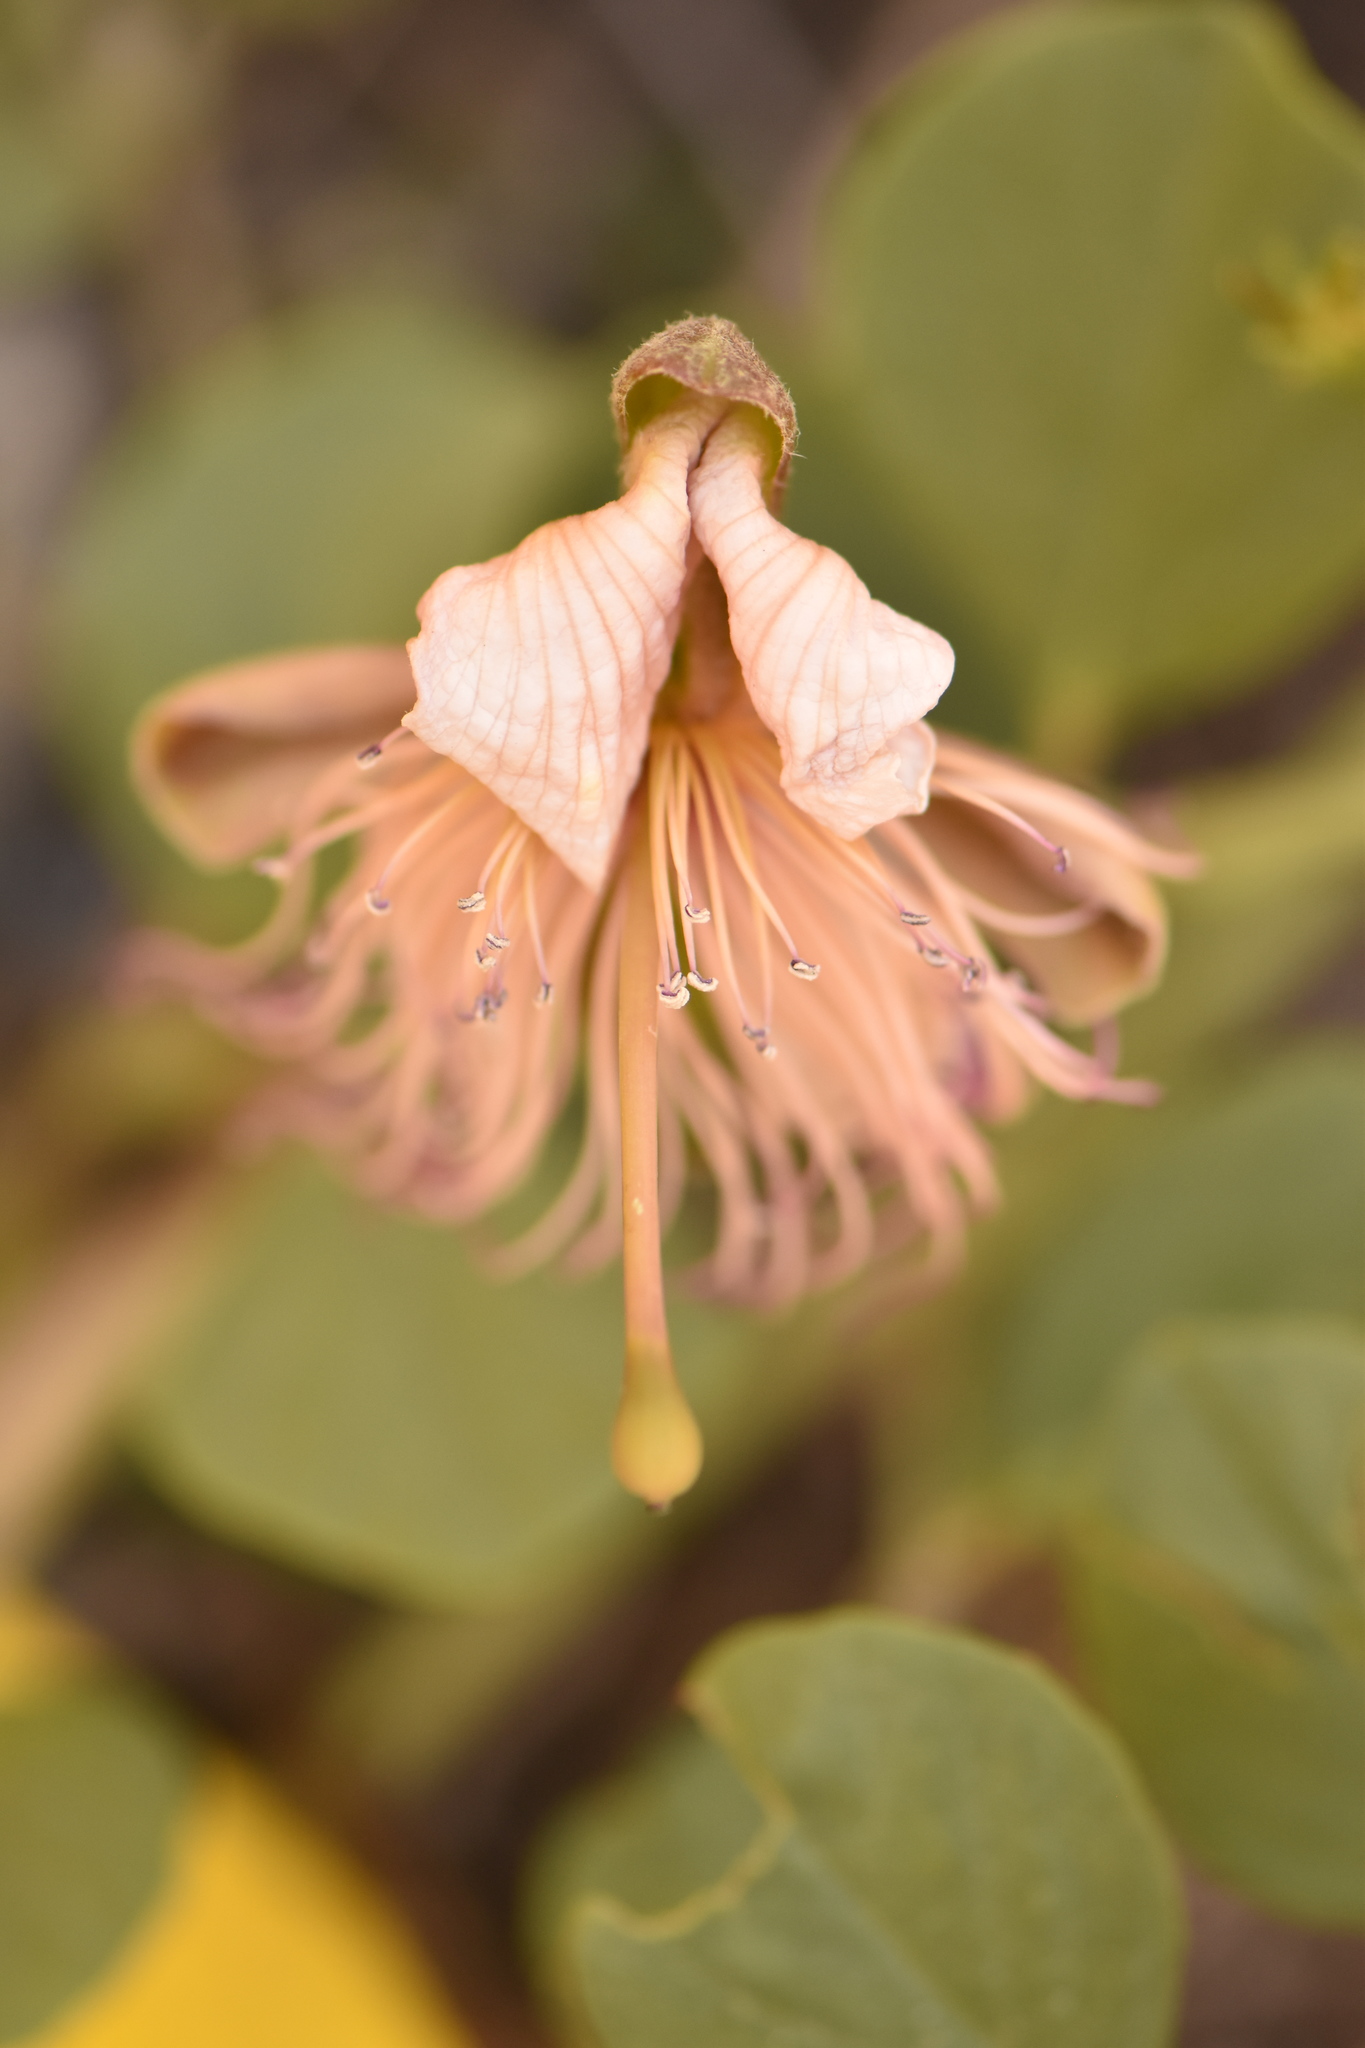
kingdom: Plantae
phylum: Tracheophyta
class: Magnoliopsida
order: Brassicales
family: Capparaceae
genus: Capparis
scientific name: Capparis spinosa
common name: Caper
